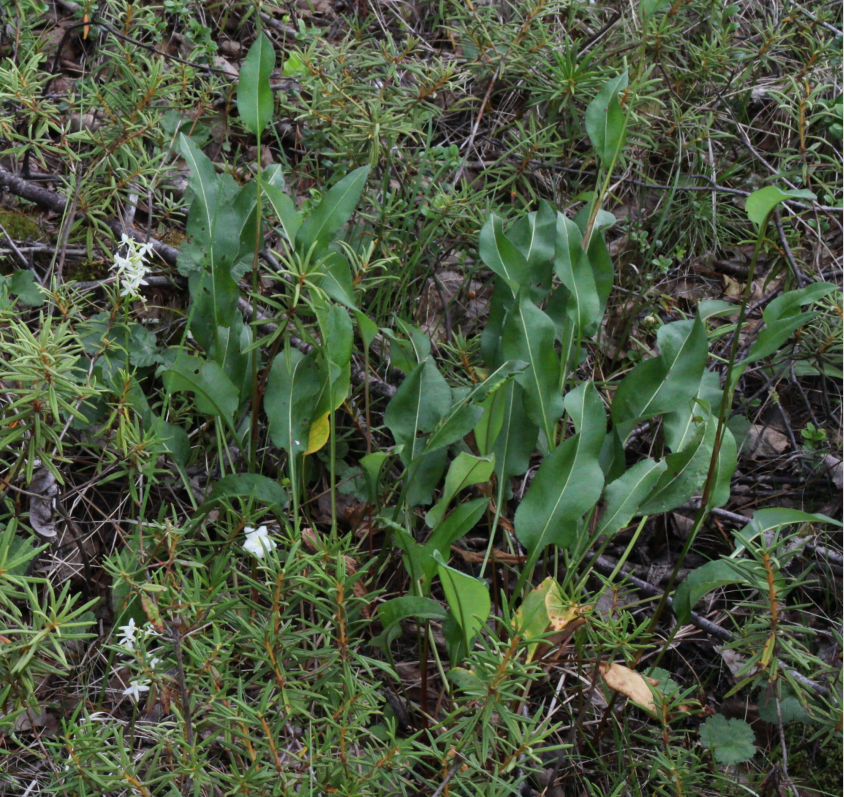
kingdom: Plantae
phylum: Tracheophyta
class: Magnoliopsida
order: Caryophyllales
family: Polygonaceae
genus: Bistorta
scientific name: Bistorta officinalis
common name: Common bistort
